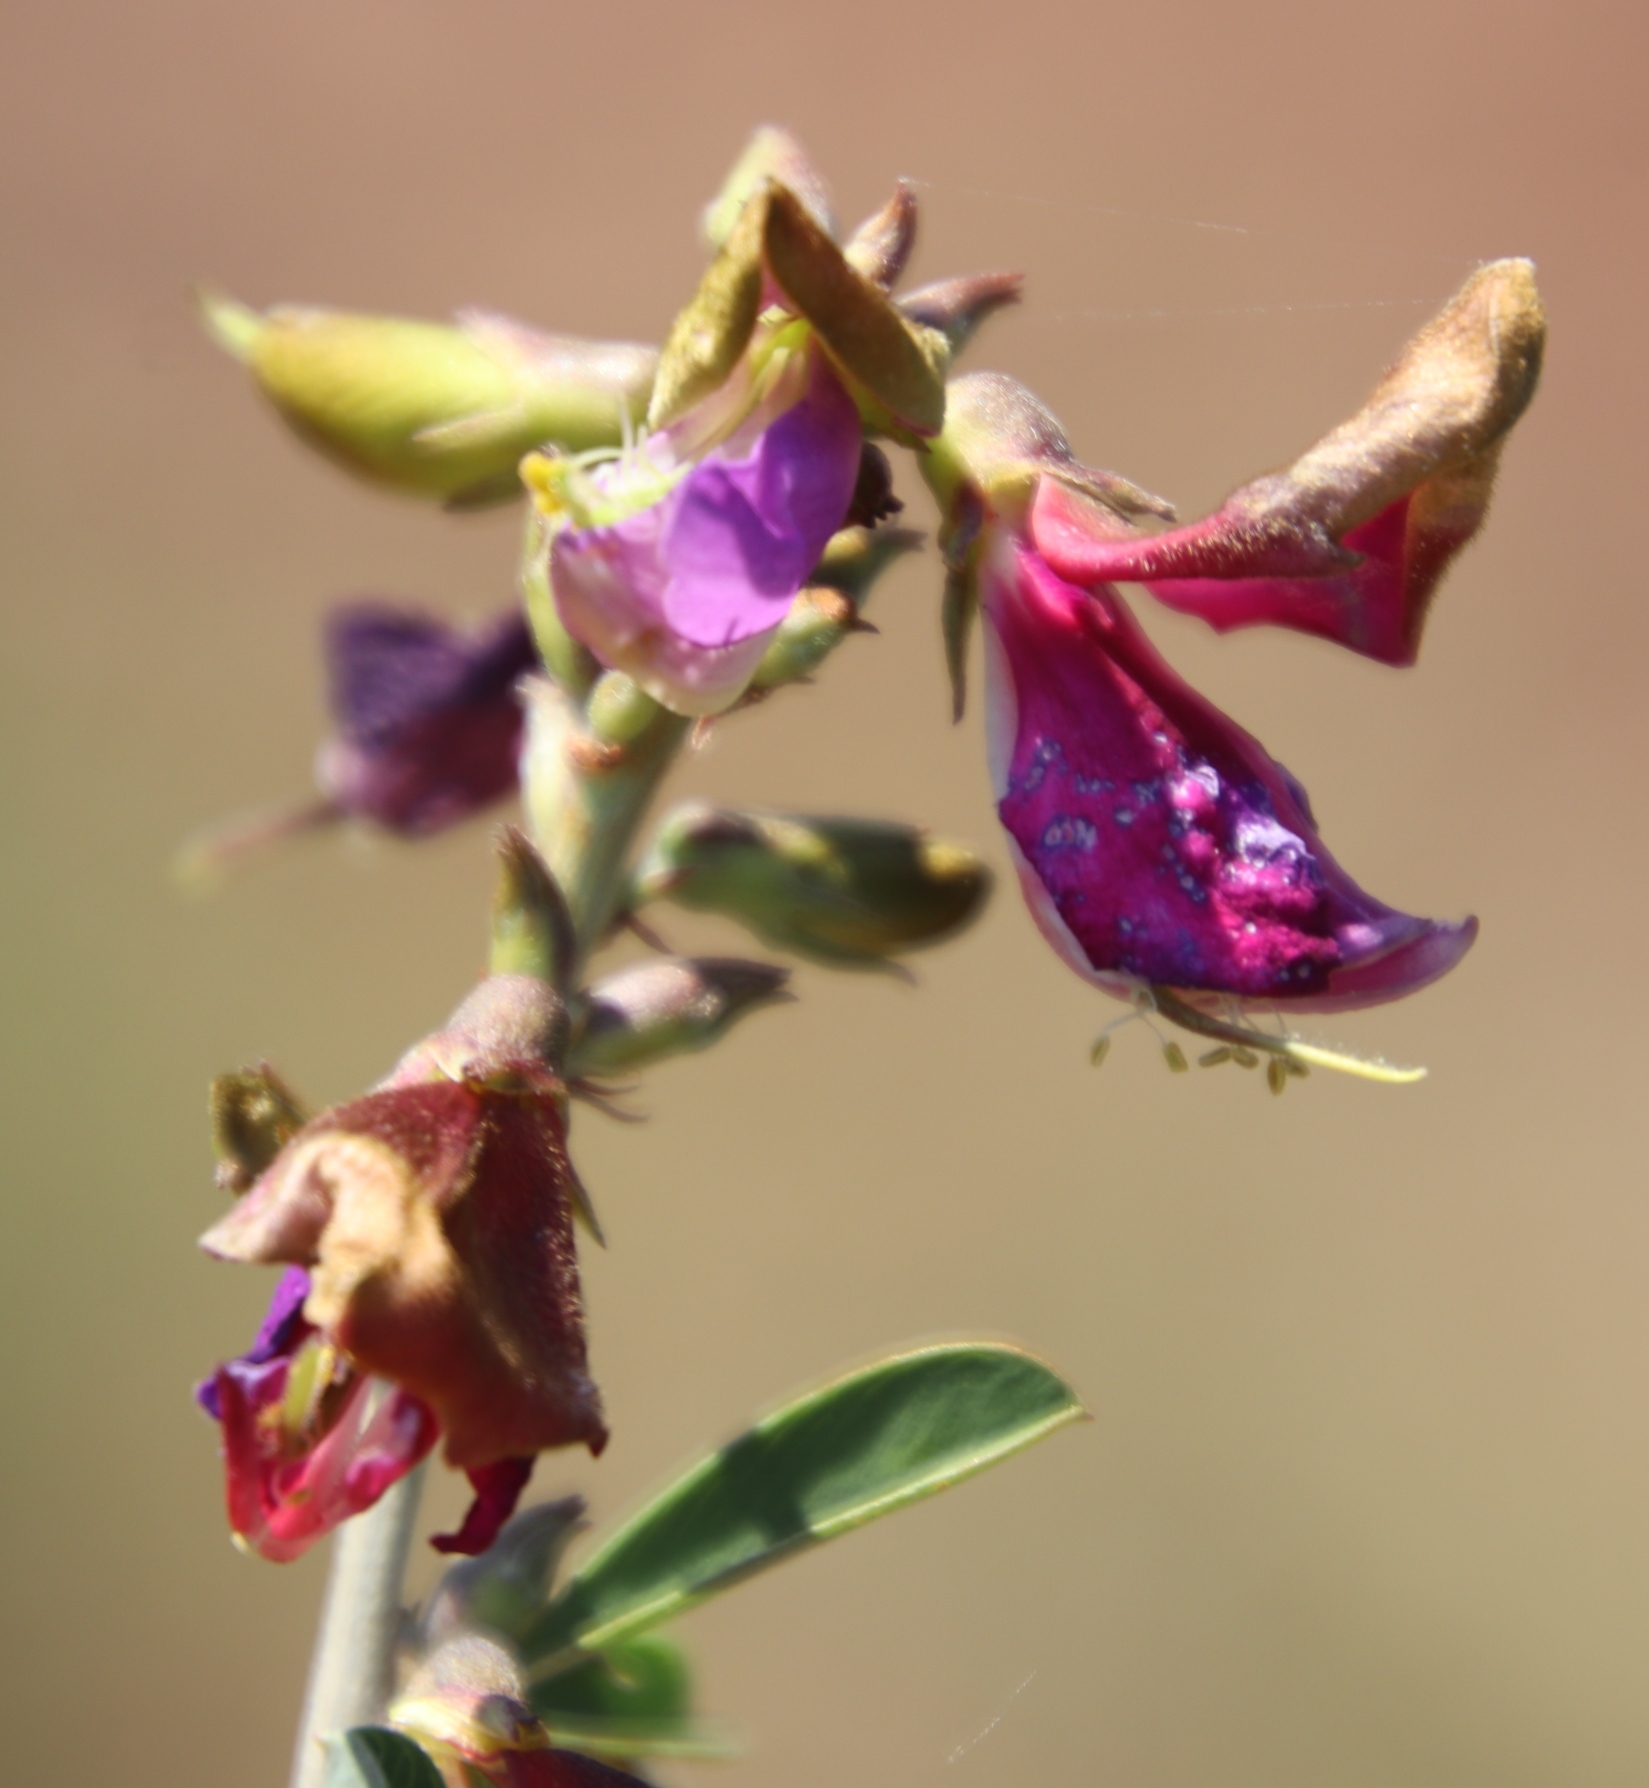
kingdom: Plantae
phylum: Tracheophyta
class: Magnoliopsida
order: Fabales
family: Fabaceae
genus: Tephrosia
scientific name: Tephrosia gobensis
